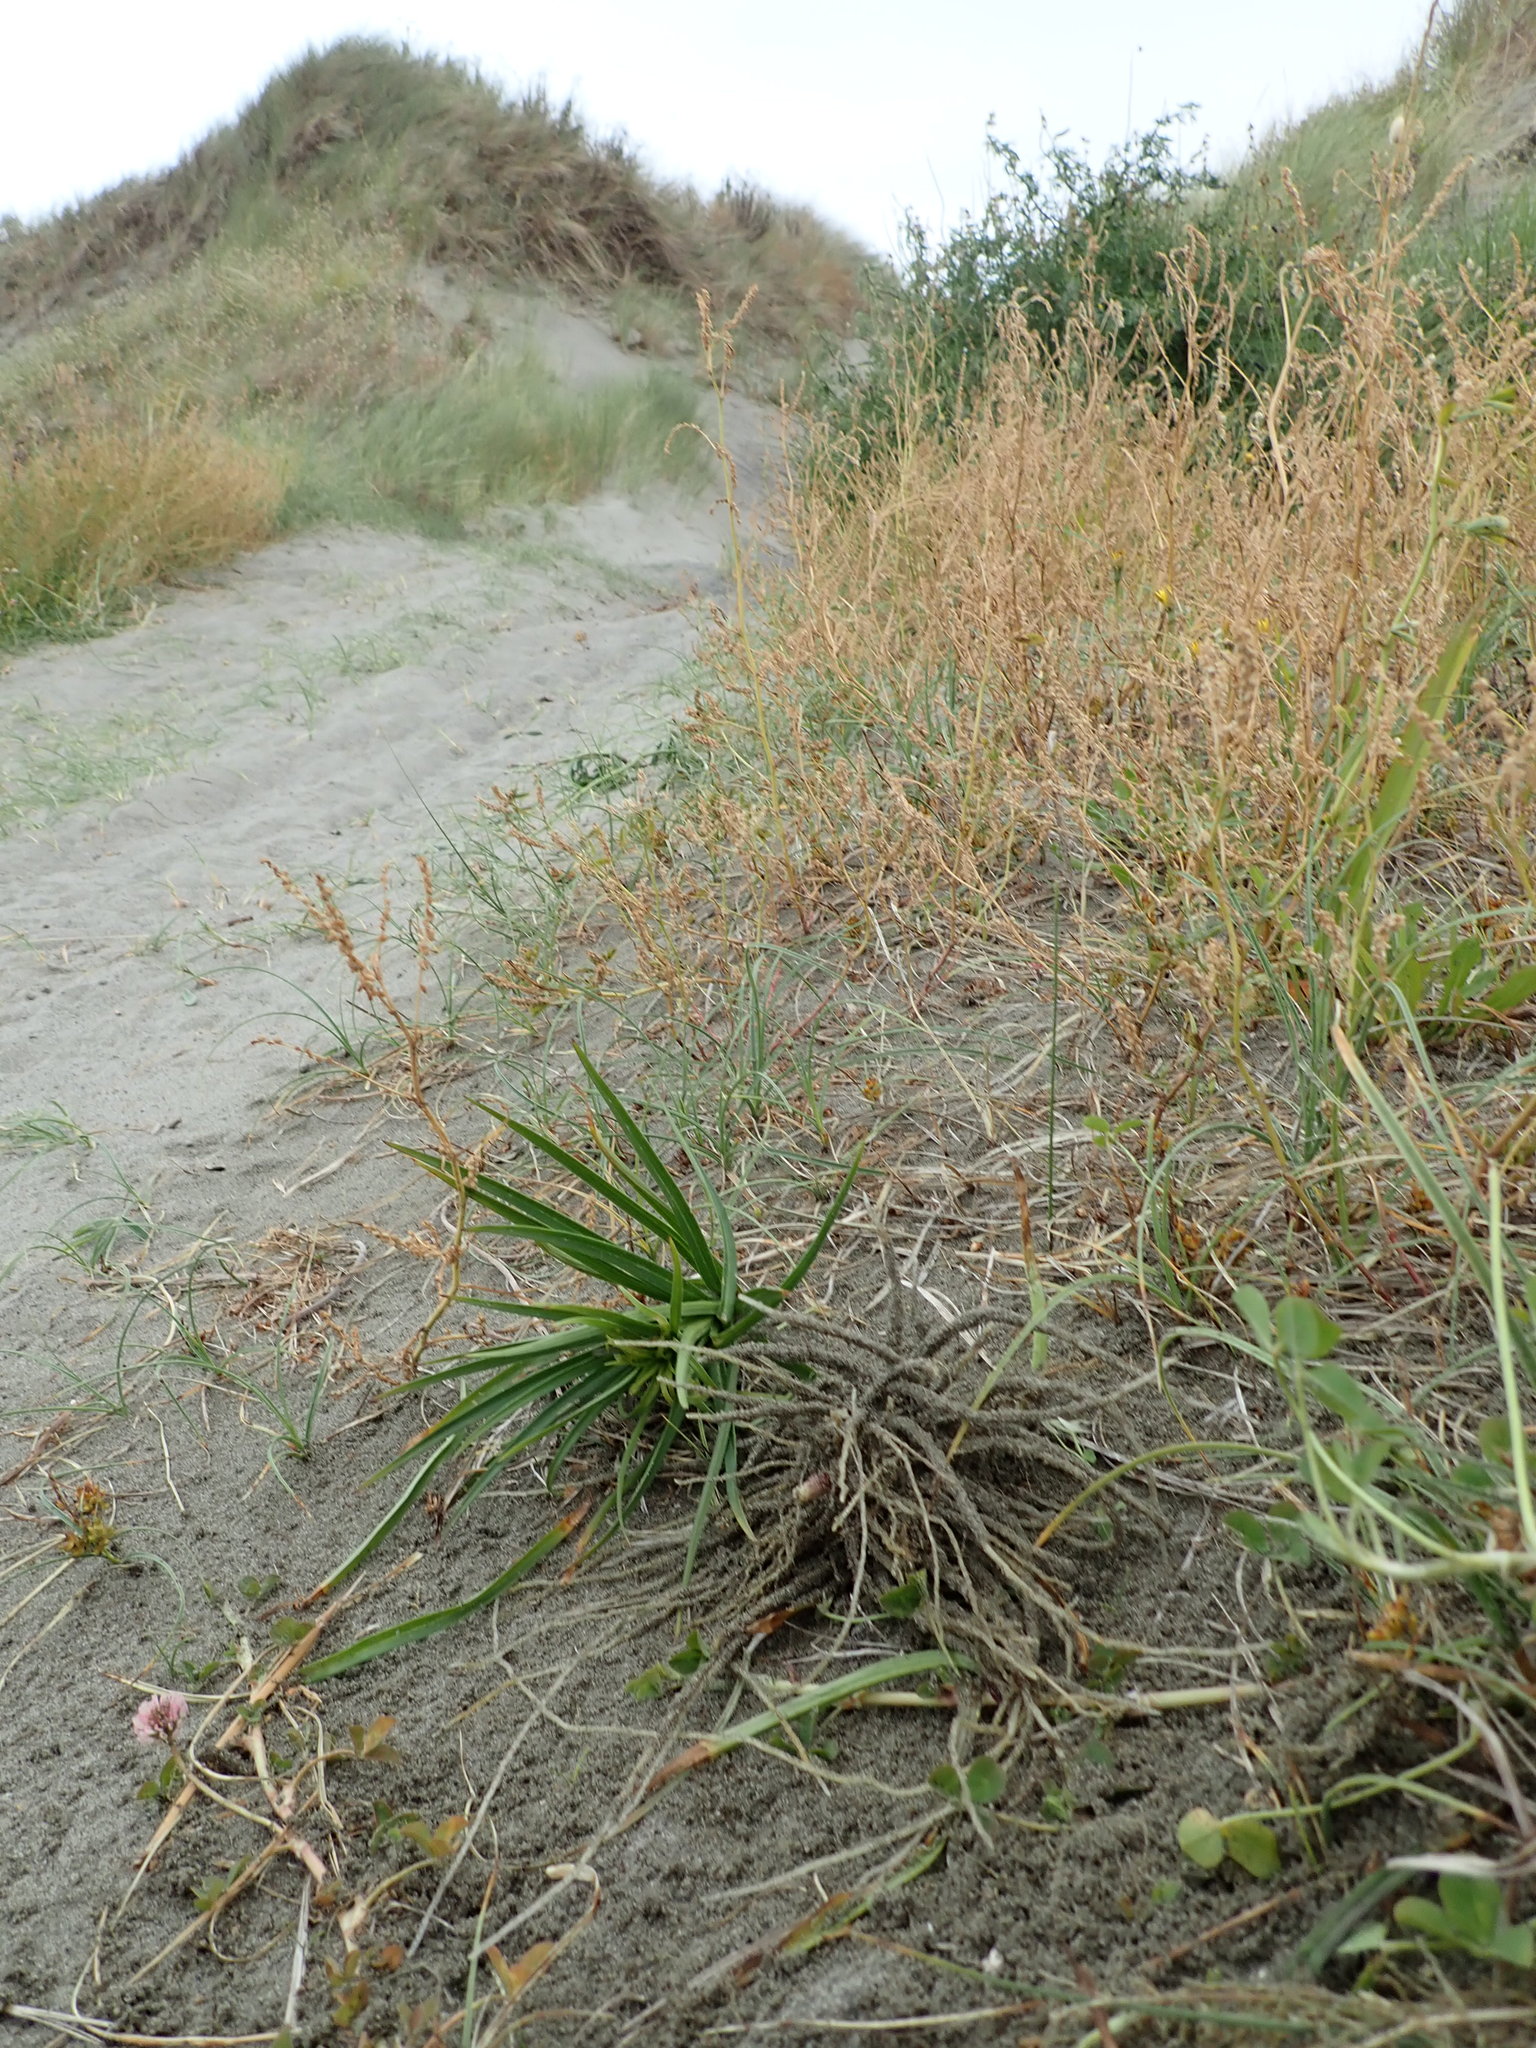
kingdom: Plantae
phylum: Tracheophyta
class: Liliopsida
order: Liliales
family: Liliaceae
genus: Lilium
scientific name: Lilium formosanum
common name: Formosa lily
